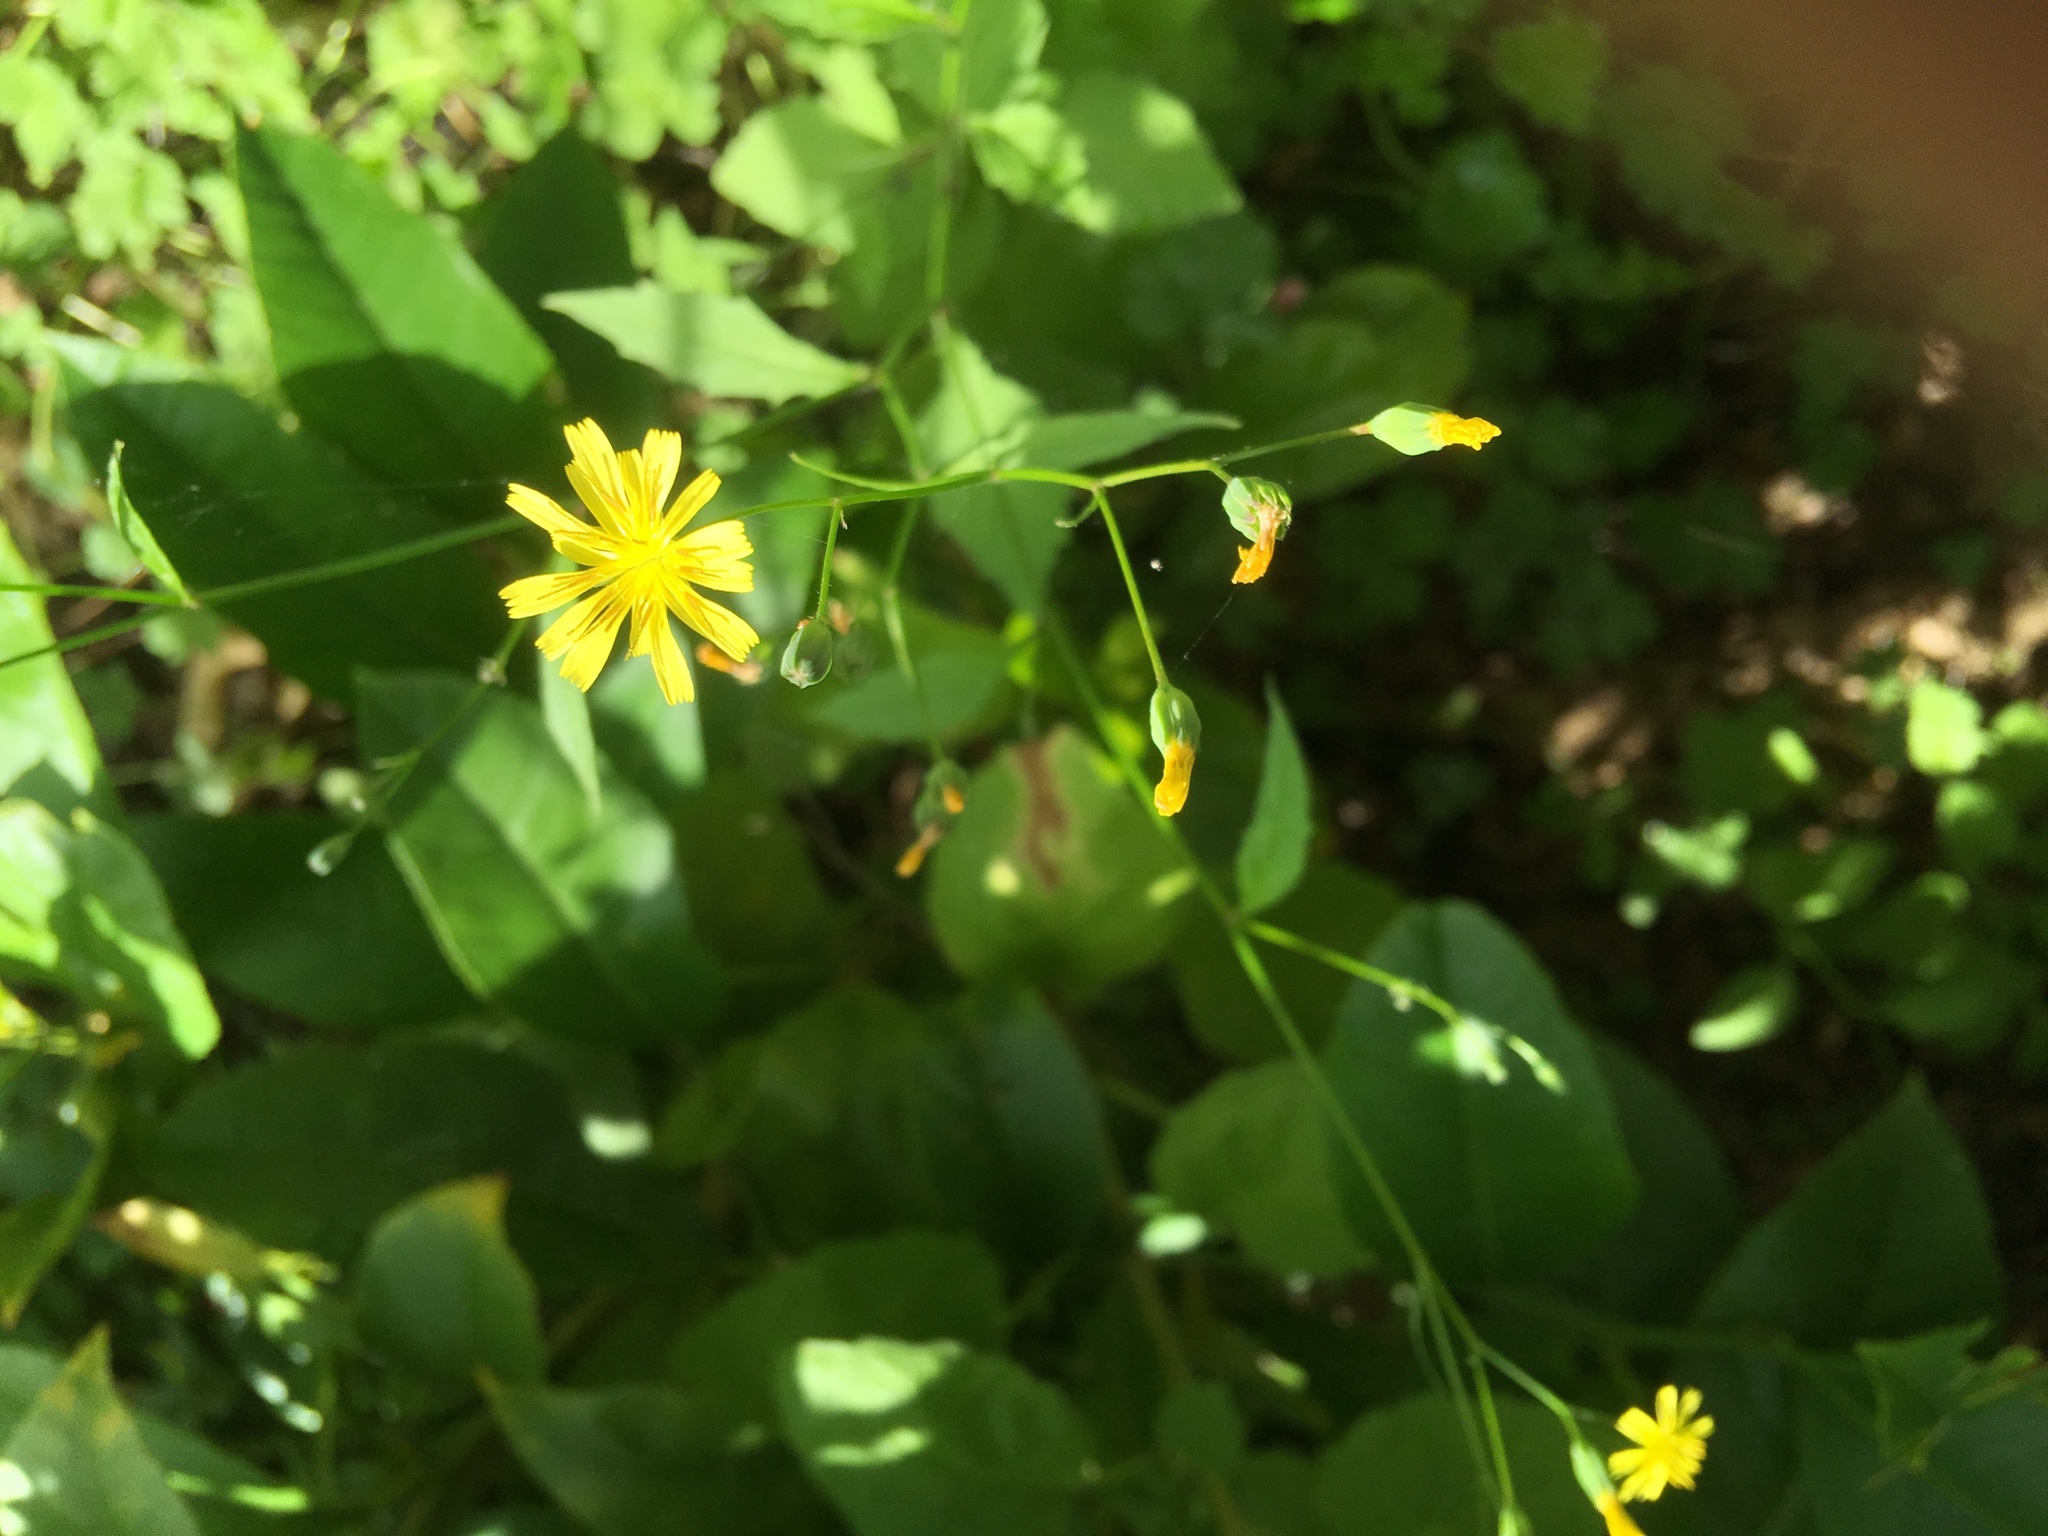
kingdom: Plantae
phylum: Tracheophyta
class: Magnoliopsida
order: Asterales
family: Asteraceae
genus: Lapsana
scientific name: Lapsana communis
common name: Nipplewort
